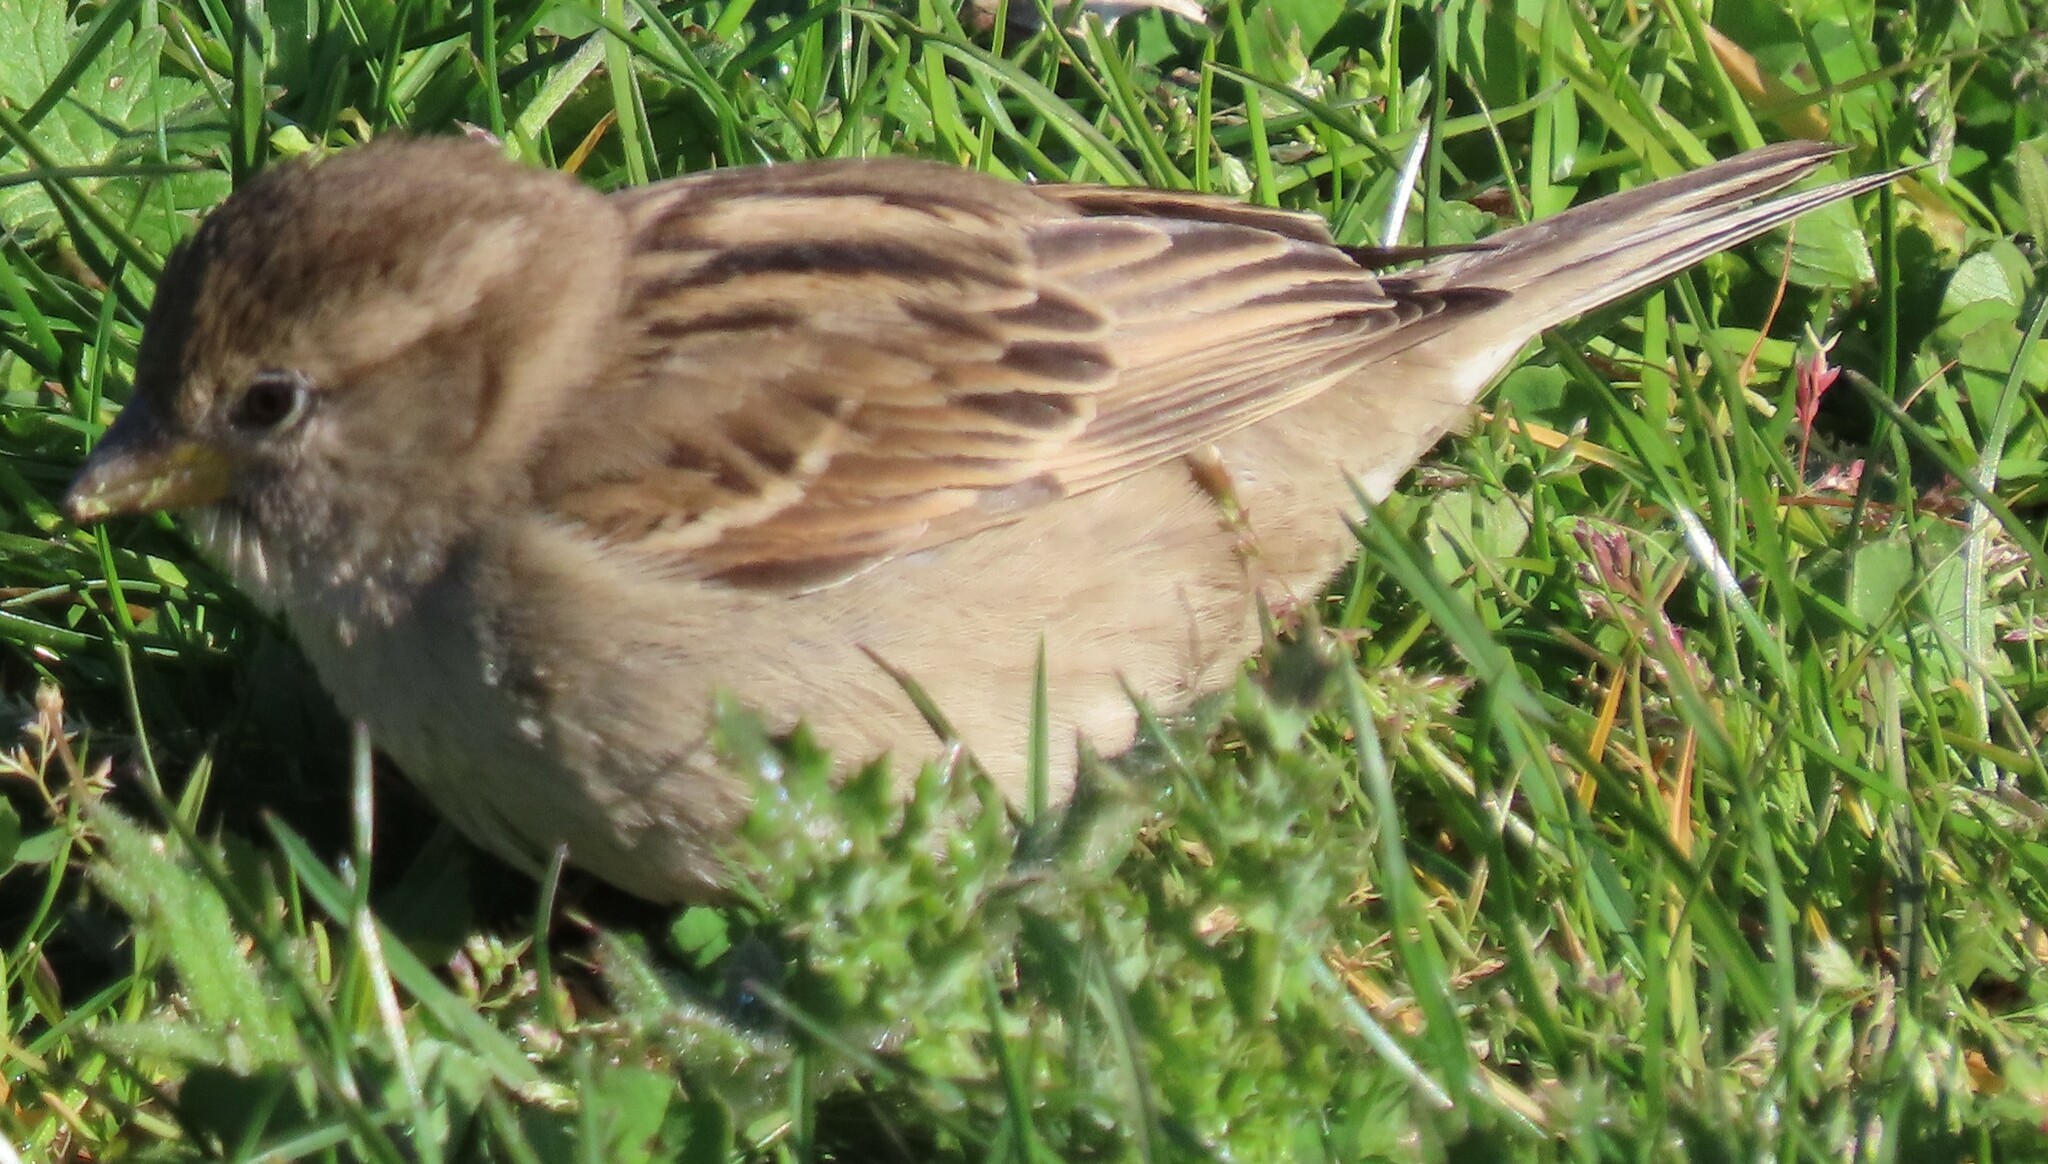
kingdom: Animalia
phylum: Chordata
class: Aves
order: Passeriformes
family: Passeridae
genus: Passer
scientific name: Passer domesticus
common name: House sparrow
